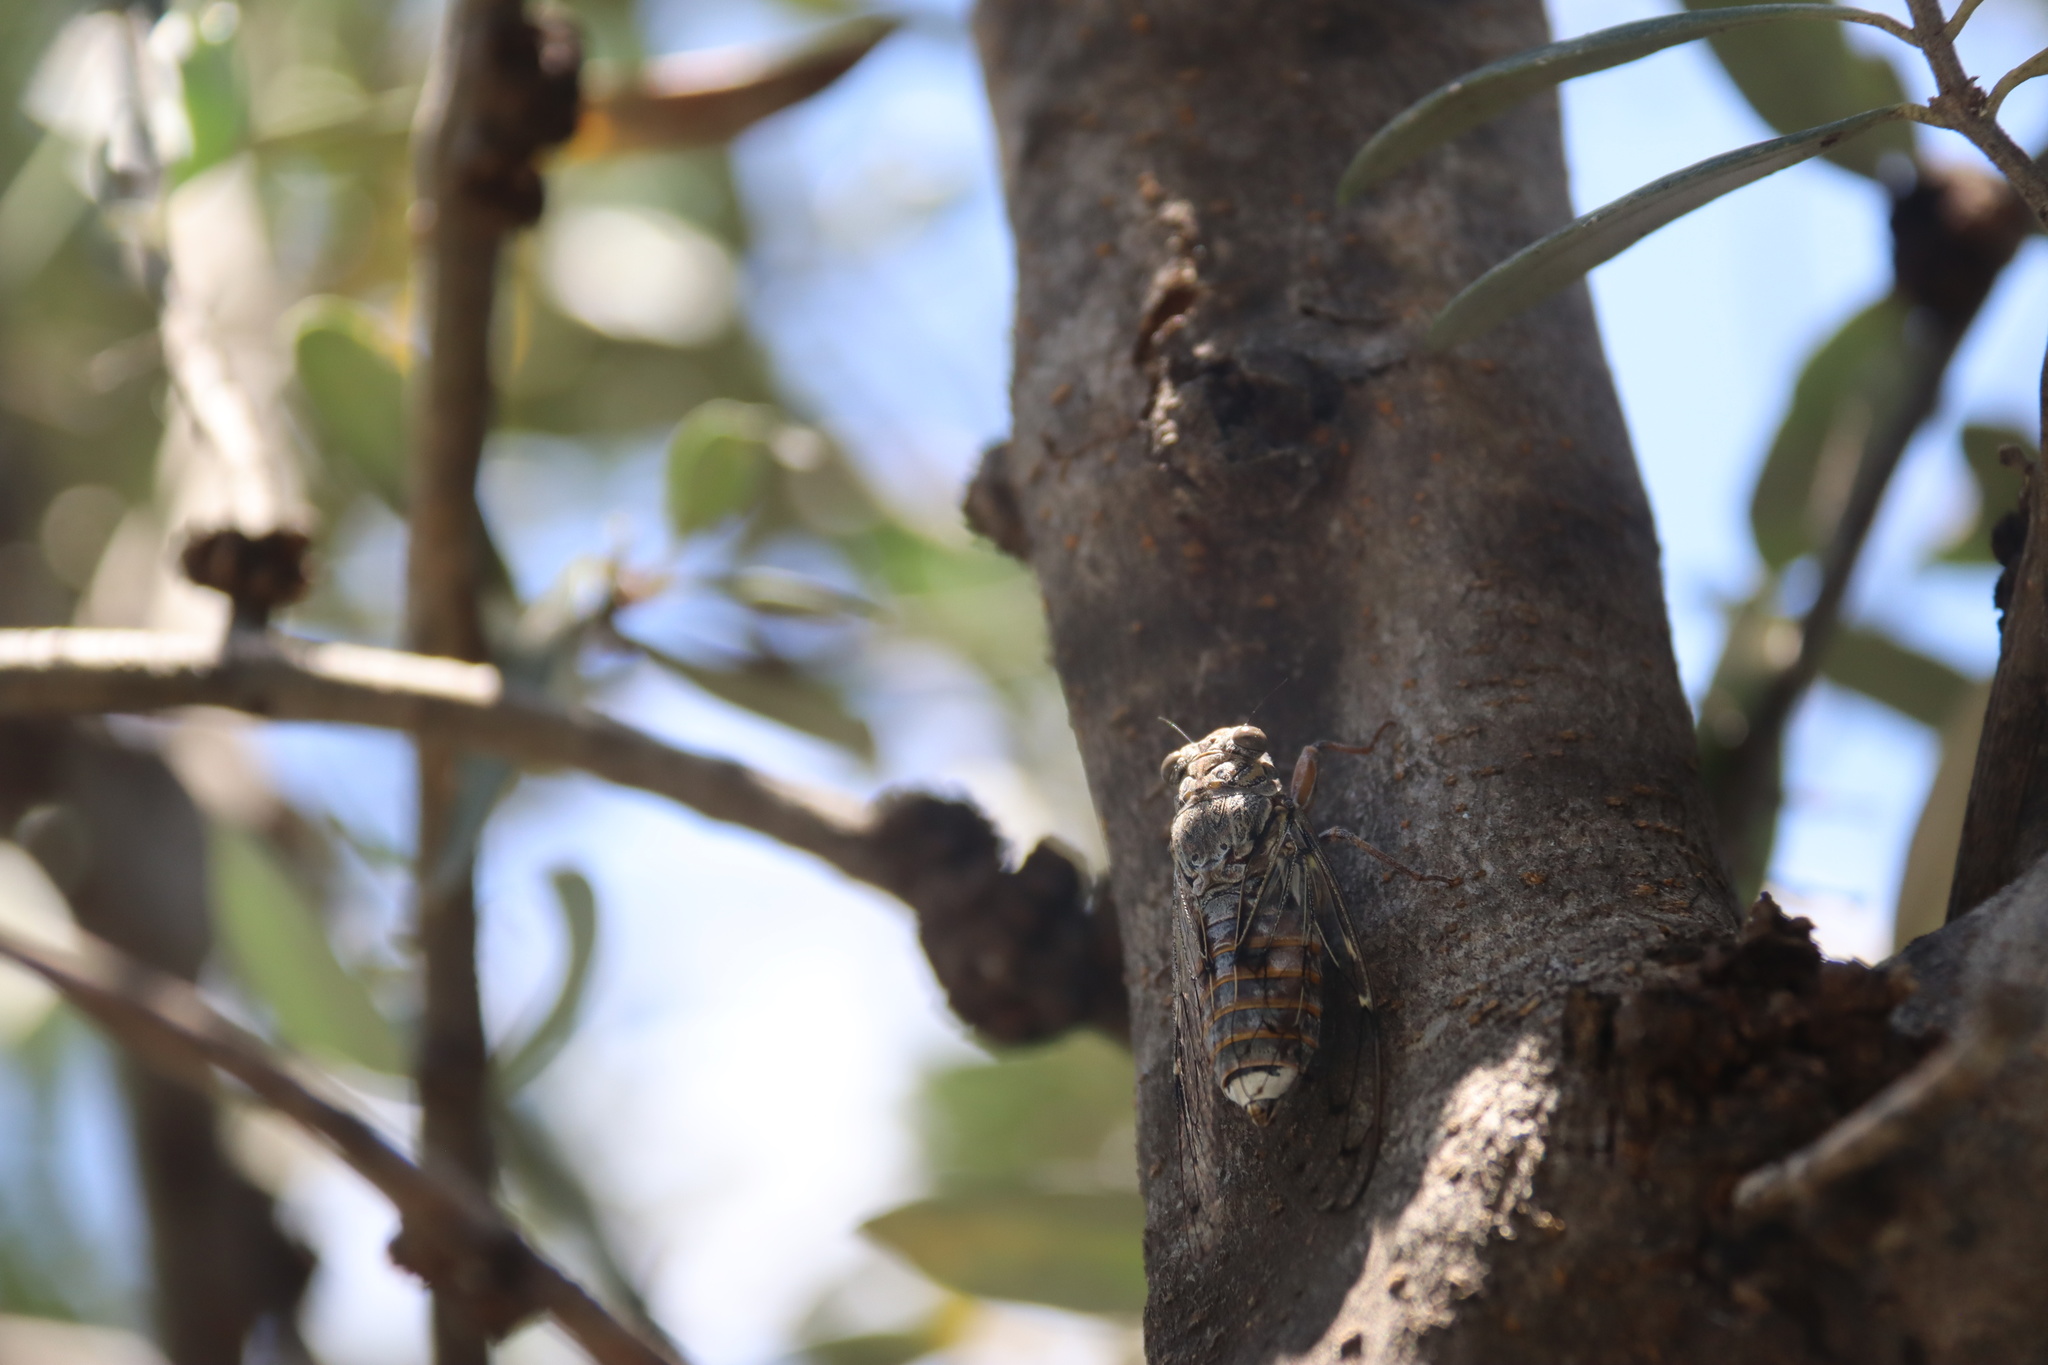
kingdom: Animalia
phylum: Arthropoda
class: Insecta
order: Hemiptera
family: Cicadidae
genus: Cicada
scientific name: Cicada orni
